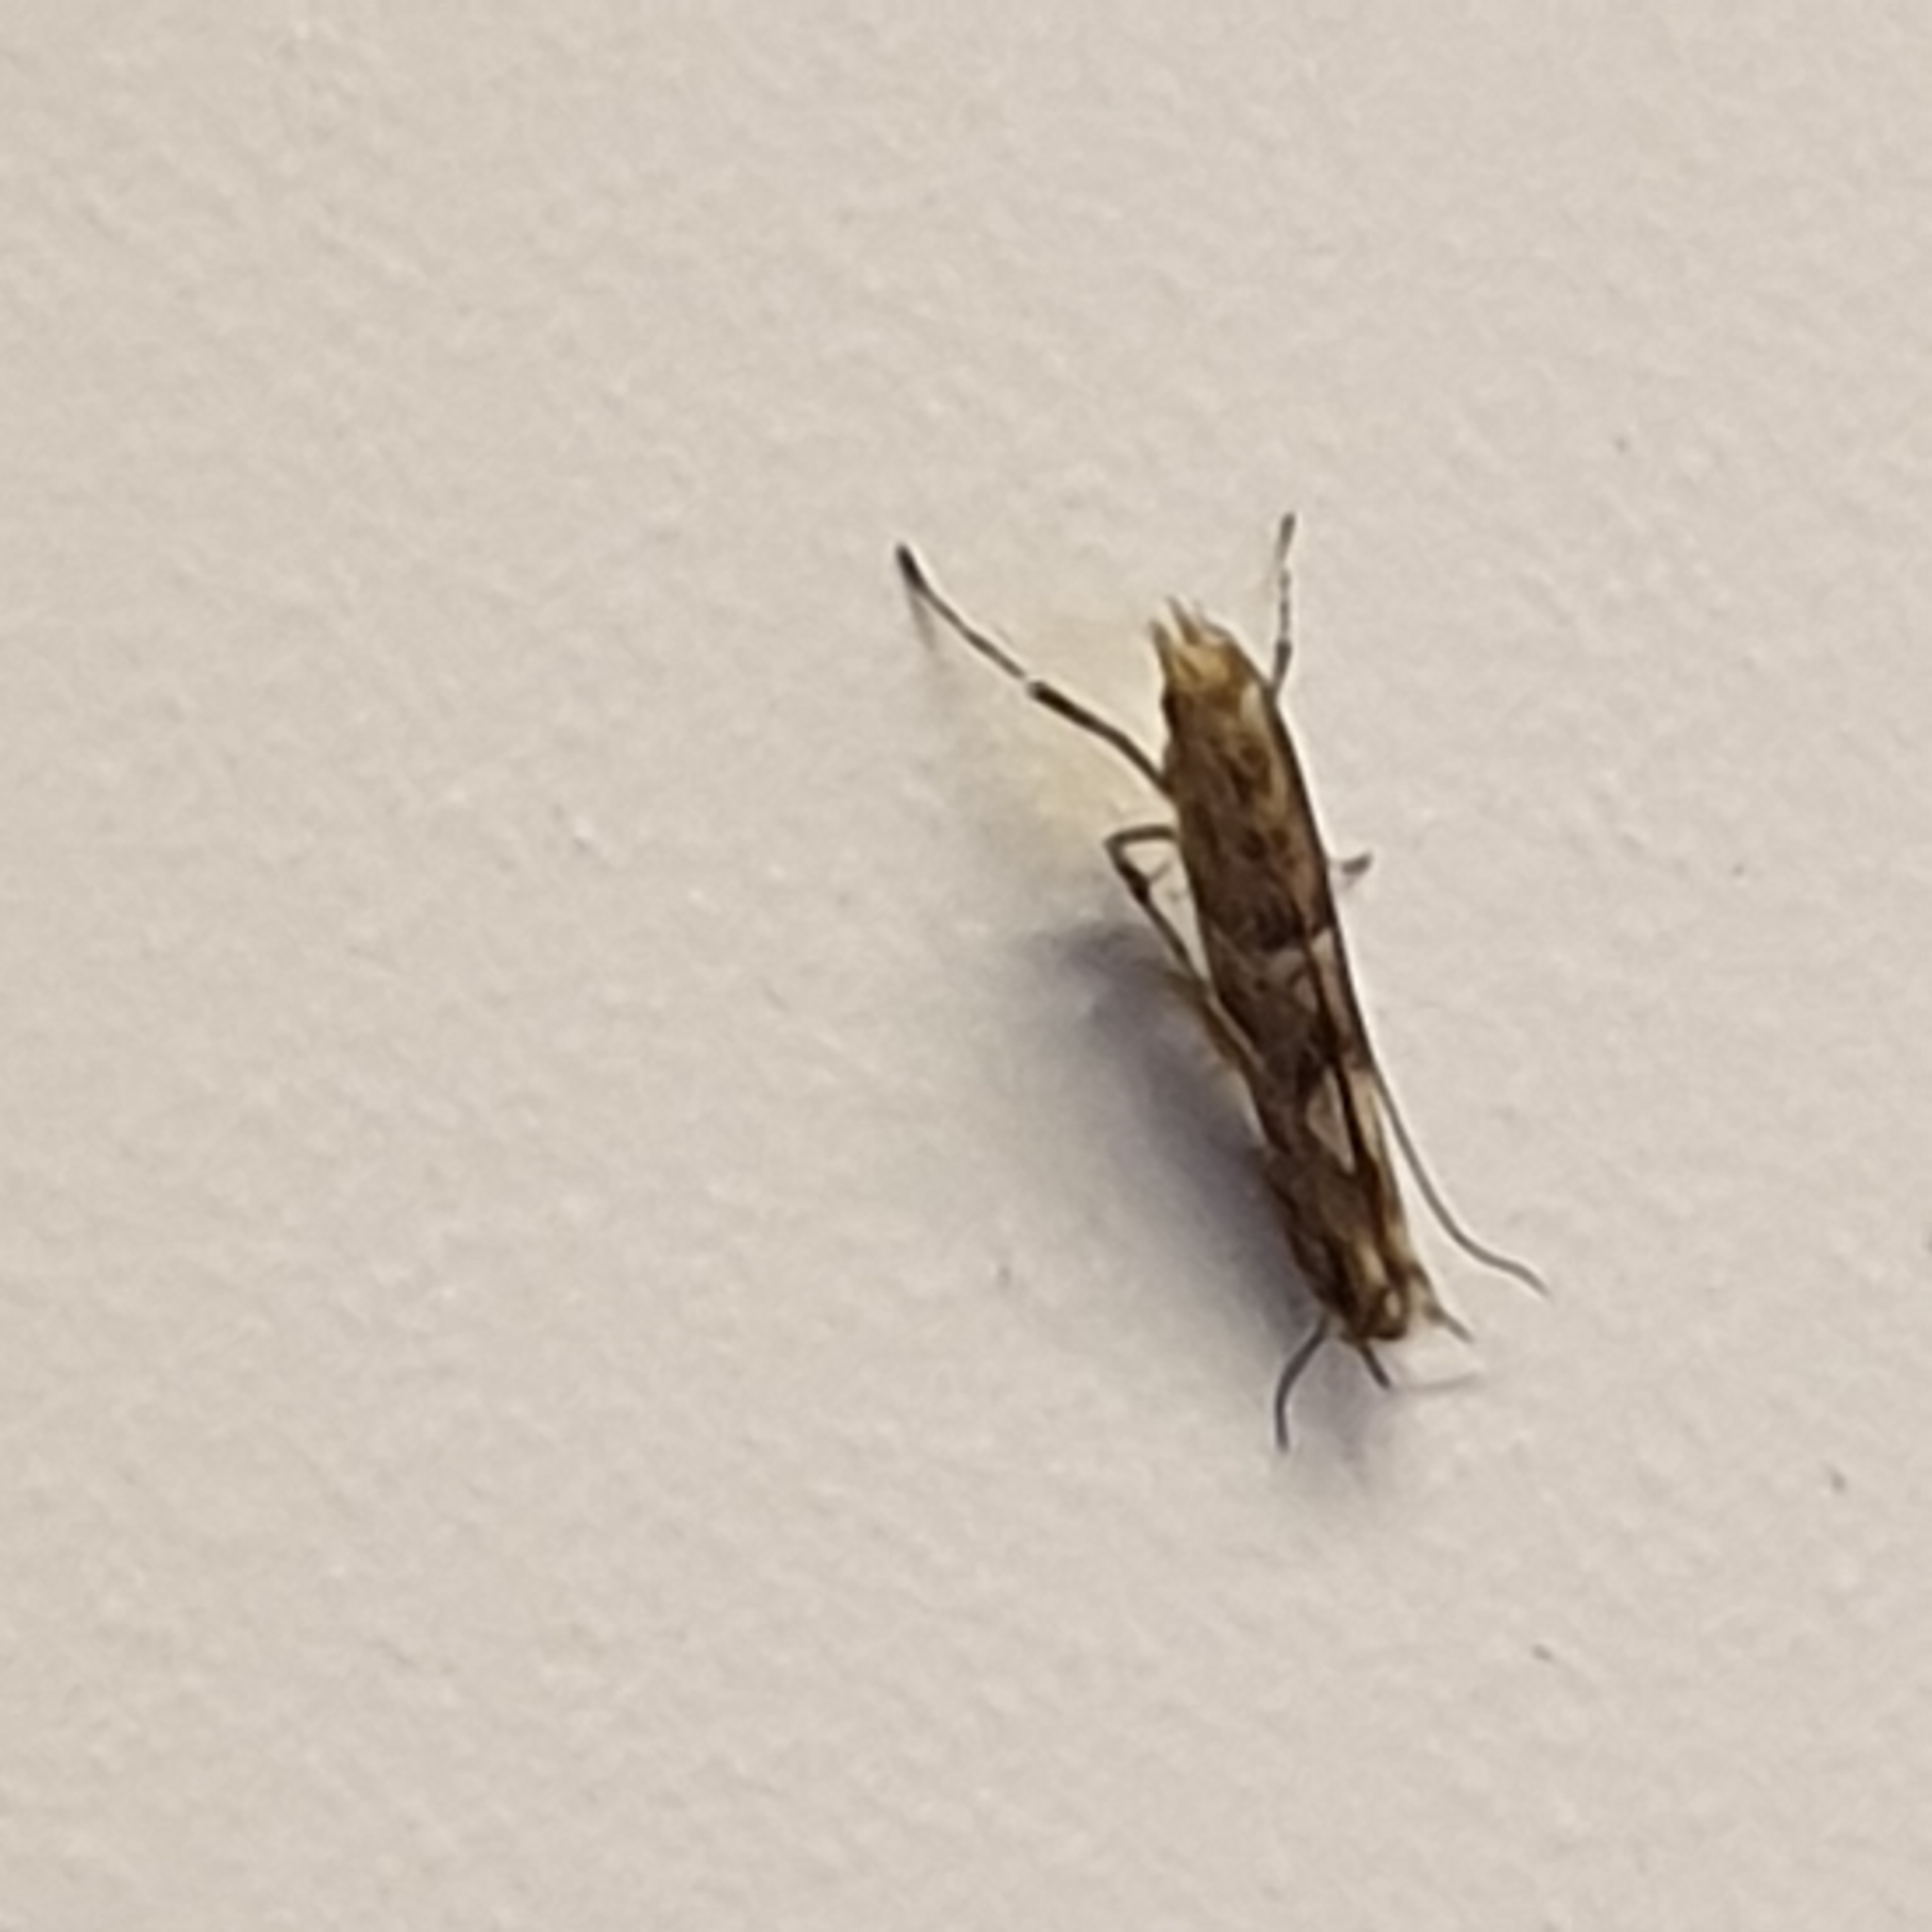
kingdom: Animalia
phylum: Arthropoda
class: Insecta
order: Lepidoptera
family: Gracillariidae
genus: Acrocercops
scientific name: Acrocercops brongniardella
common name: Brown oak slender
